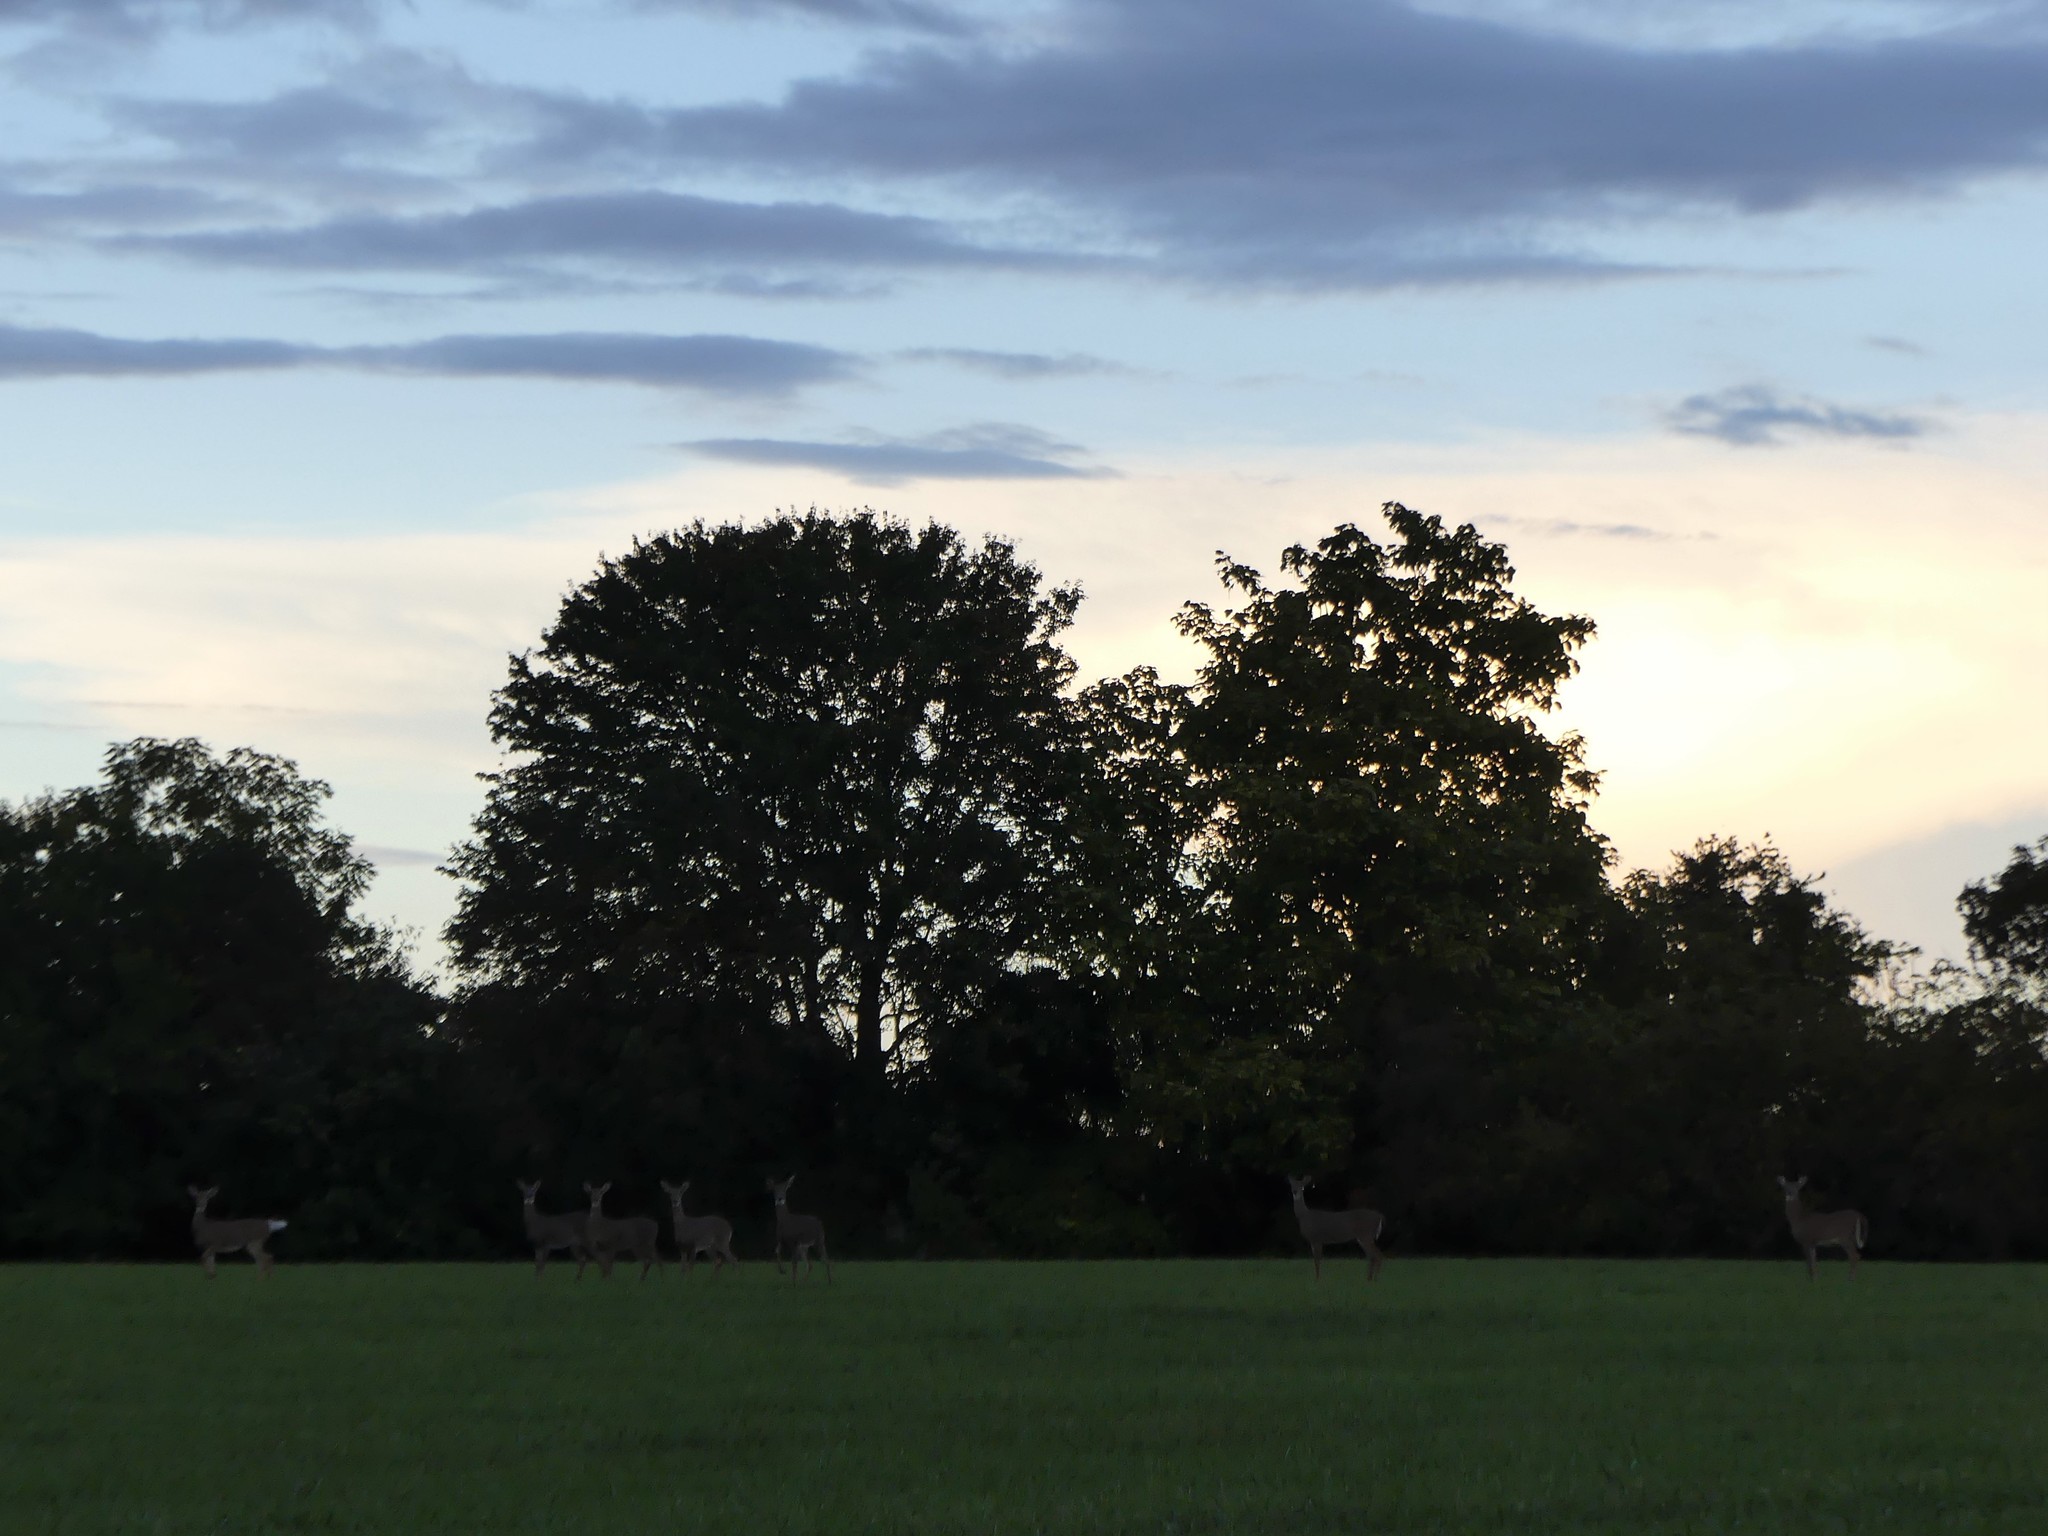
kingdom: Animalia
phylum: Chordata
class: Mammalia
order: Artiodactyla
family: Cervidae
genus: Odocoileus
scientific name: Odocoileus virginianus
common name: White-tailed deer
